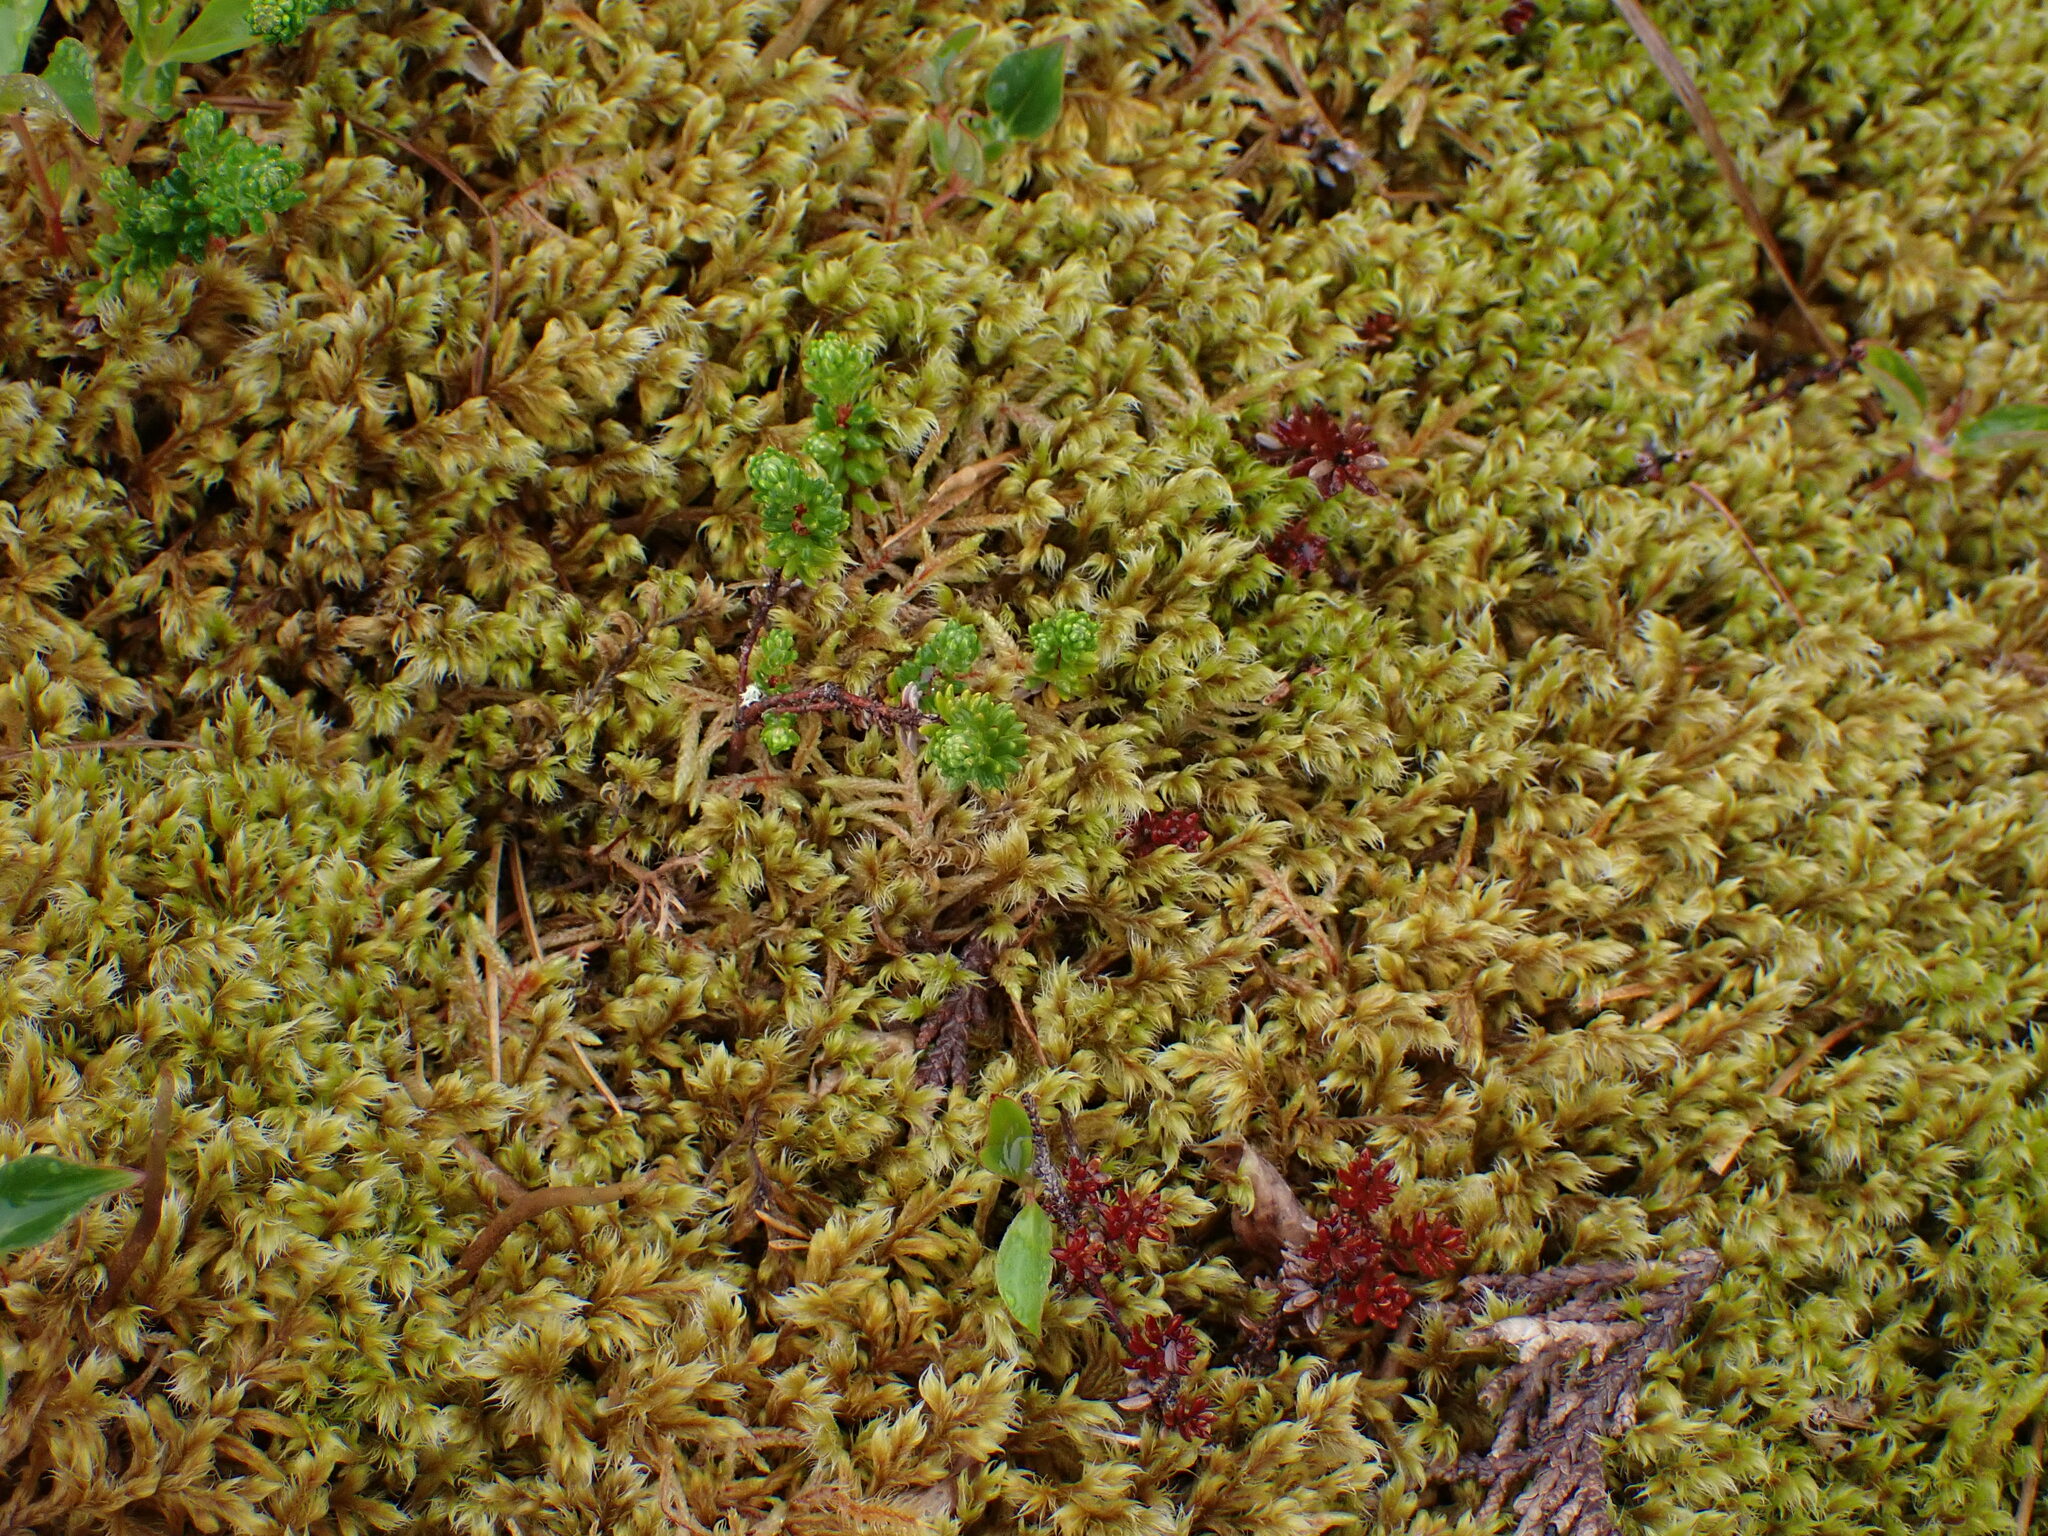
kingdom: Plantae
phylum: Bryophyta
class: Bryopsida
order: Grimmiales
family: Grimmiaceae
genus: Racomitrium
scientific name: Racomitrium lanuginosum
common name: Hoary rock moss
